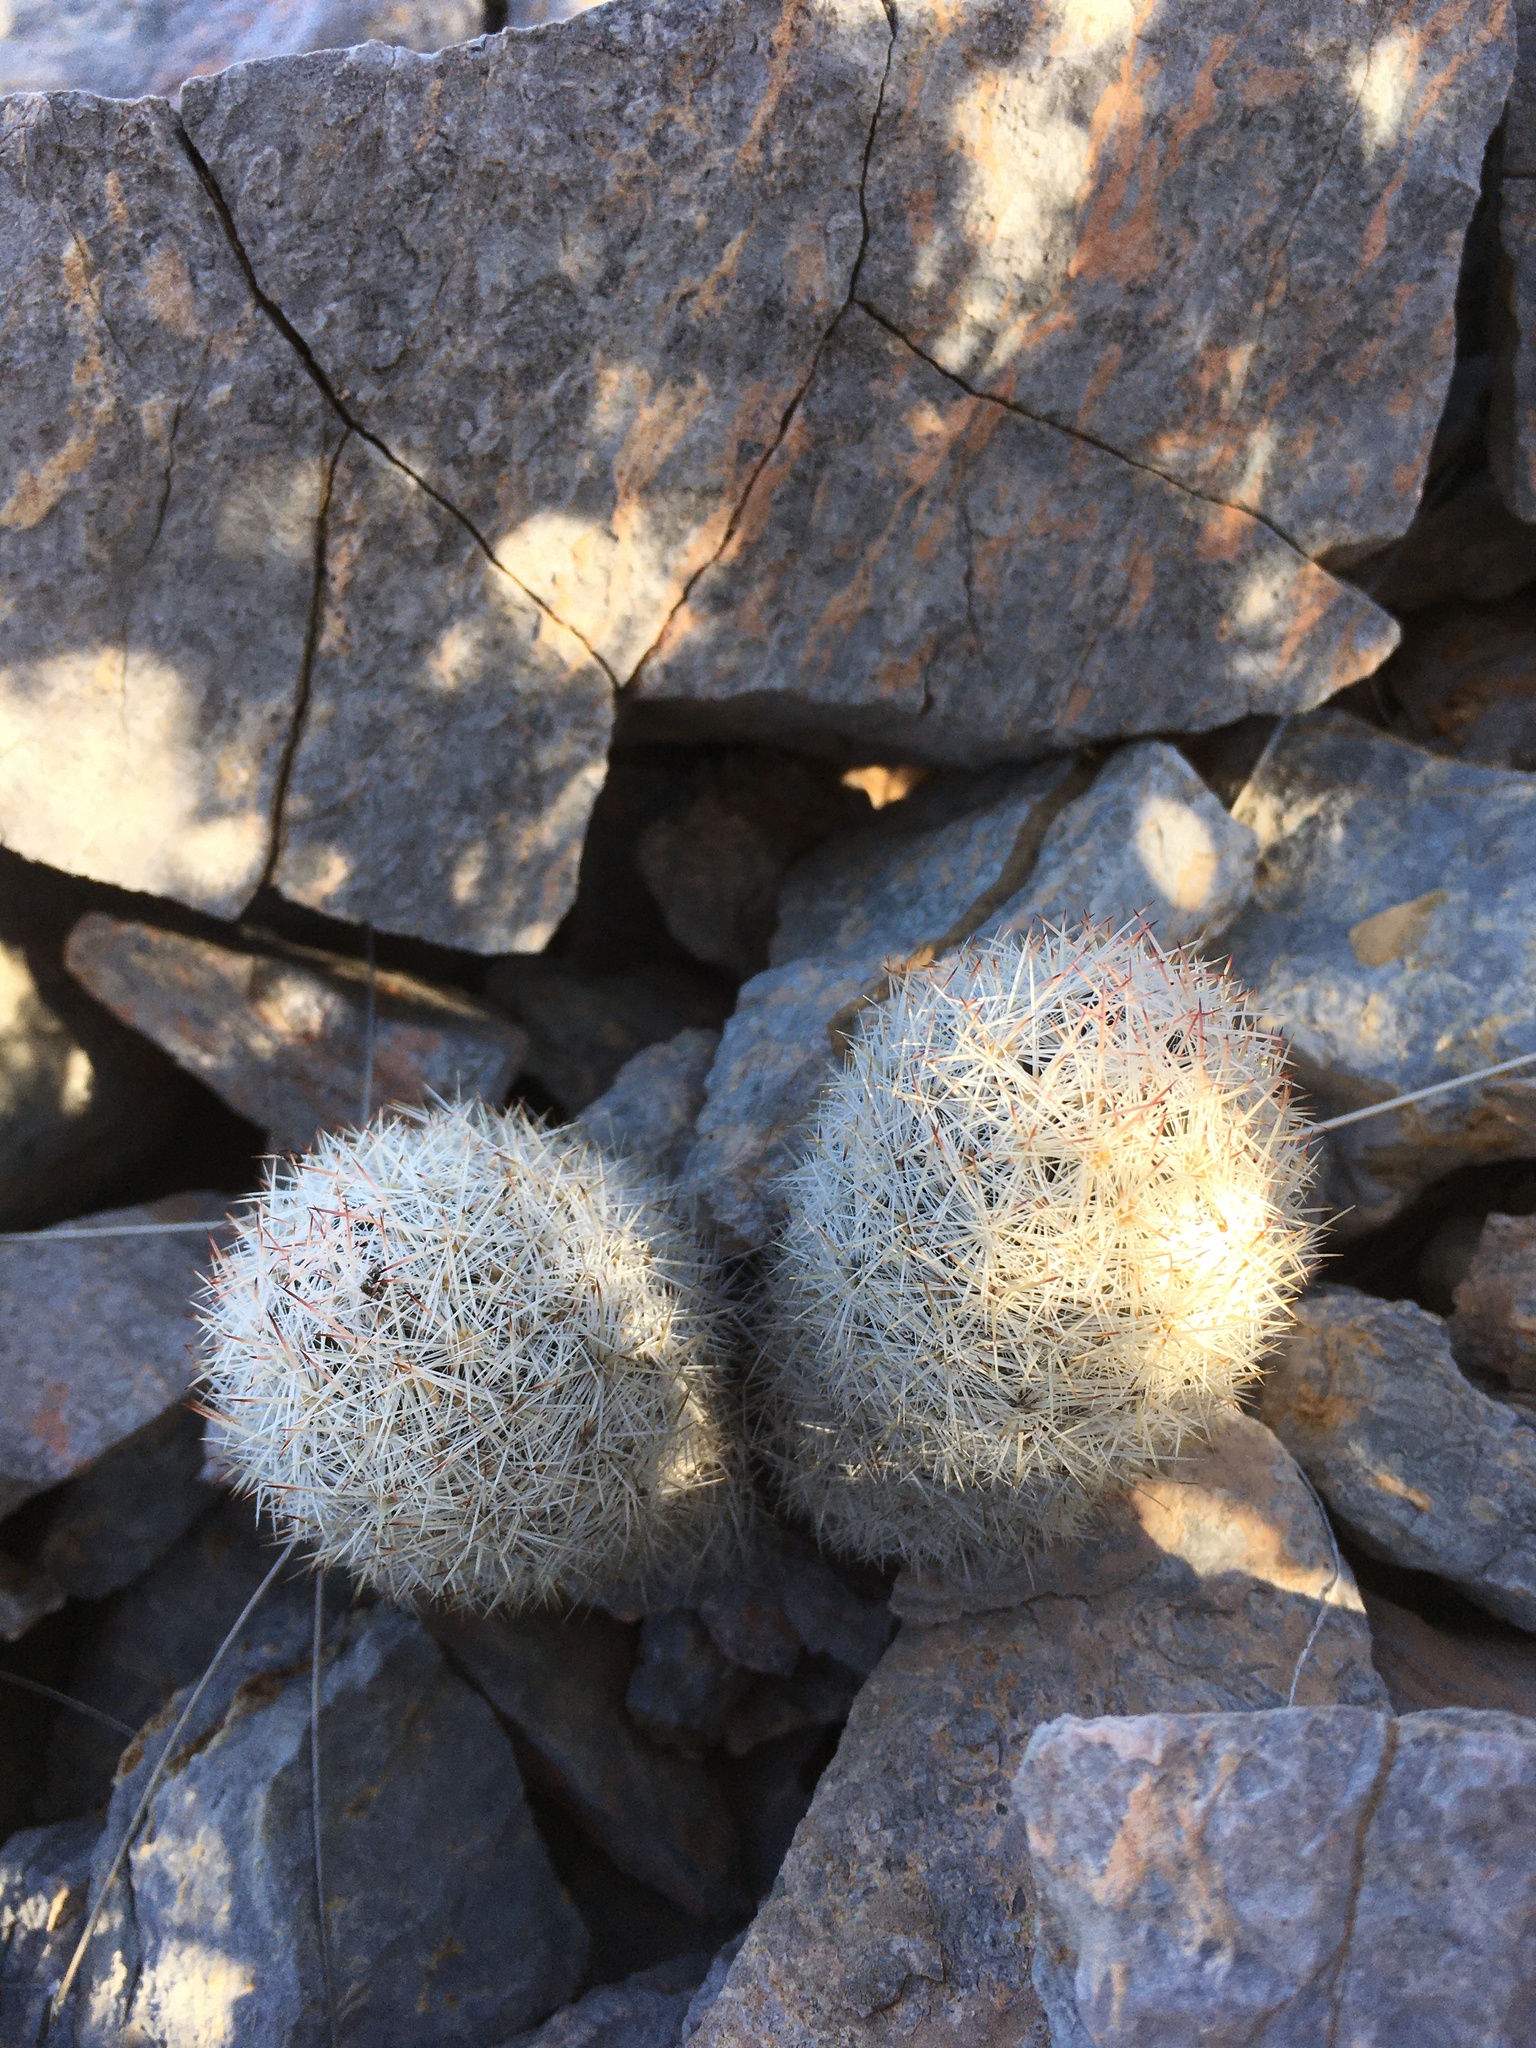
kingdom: Plantae
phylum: Tracheophyta
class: Magnoliopsida
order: Caryophyllales
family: Cactaceae
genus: Pelecyphora
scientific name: Pelecyphora sneedii
